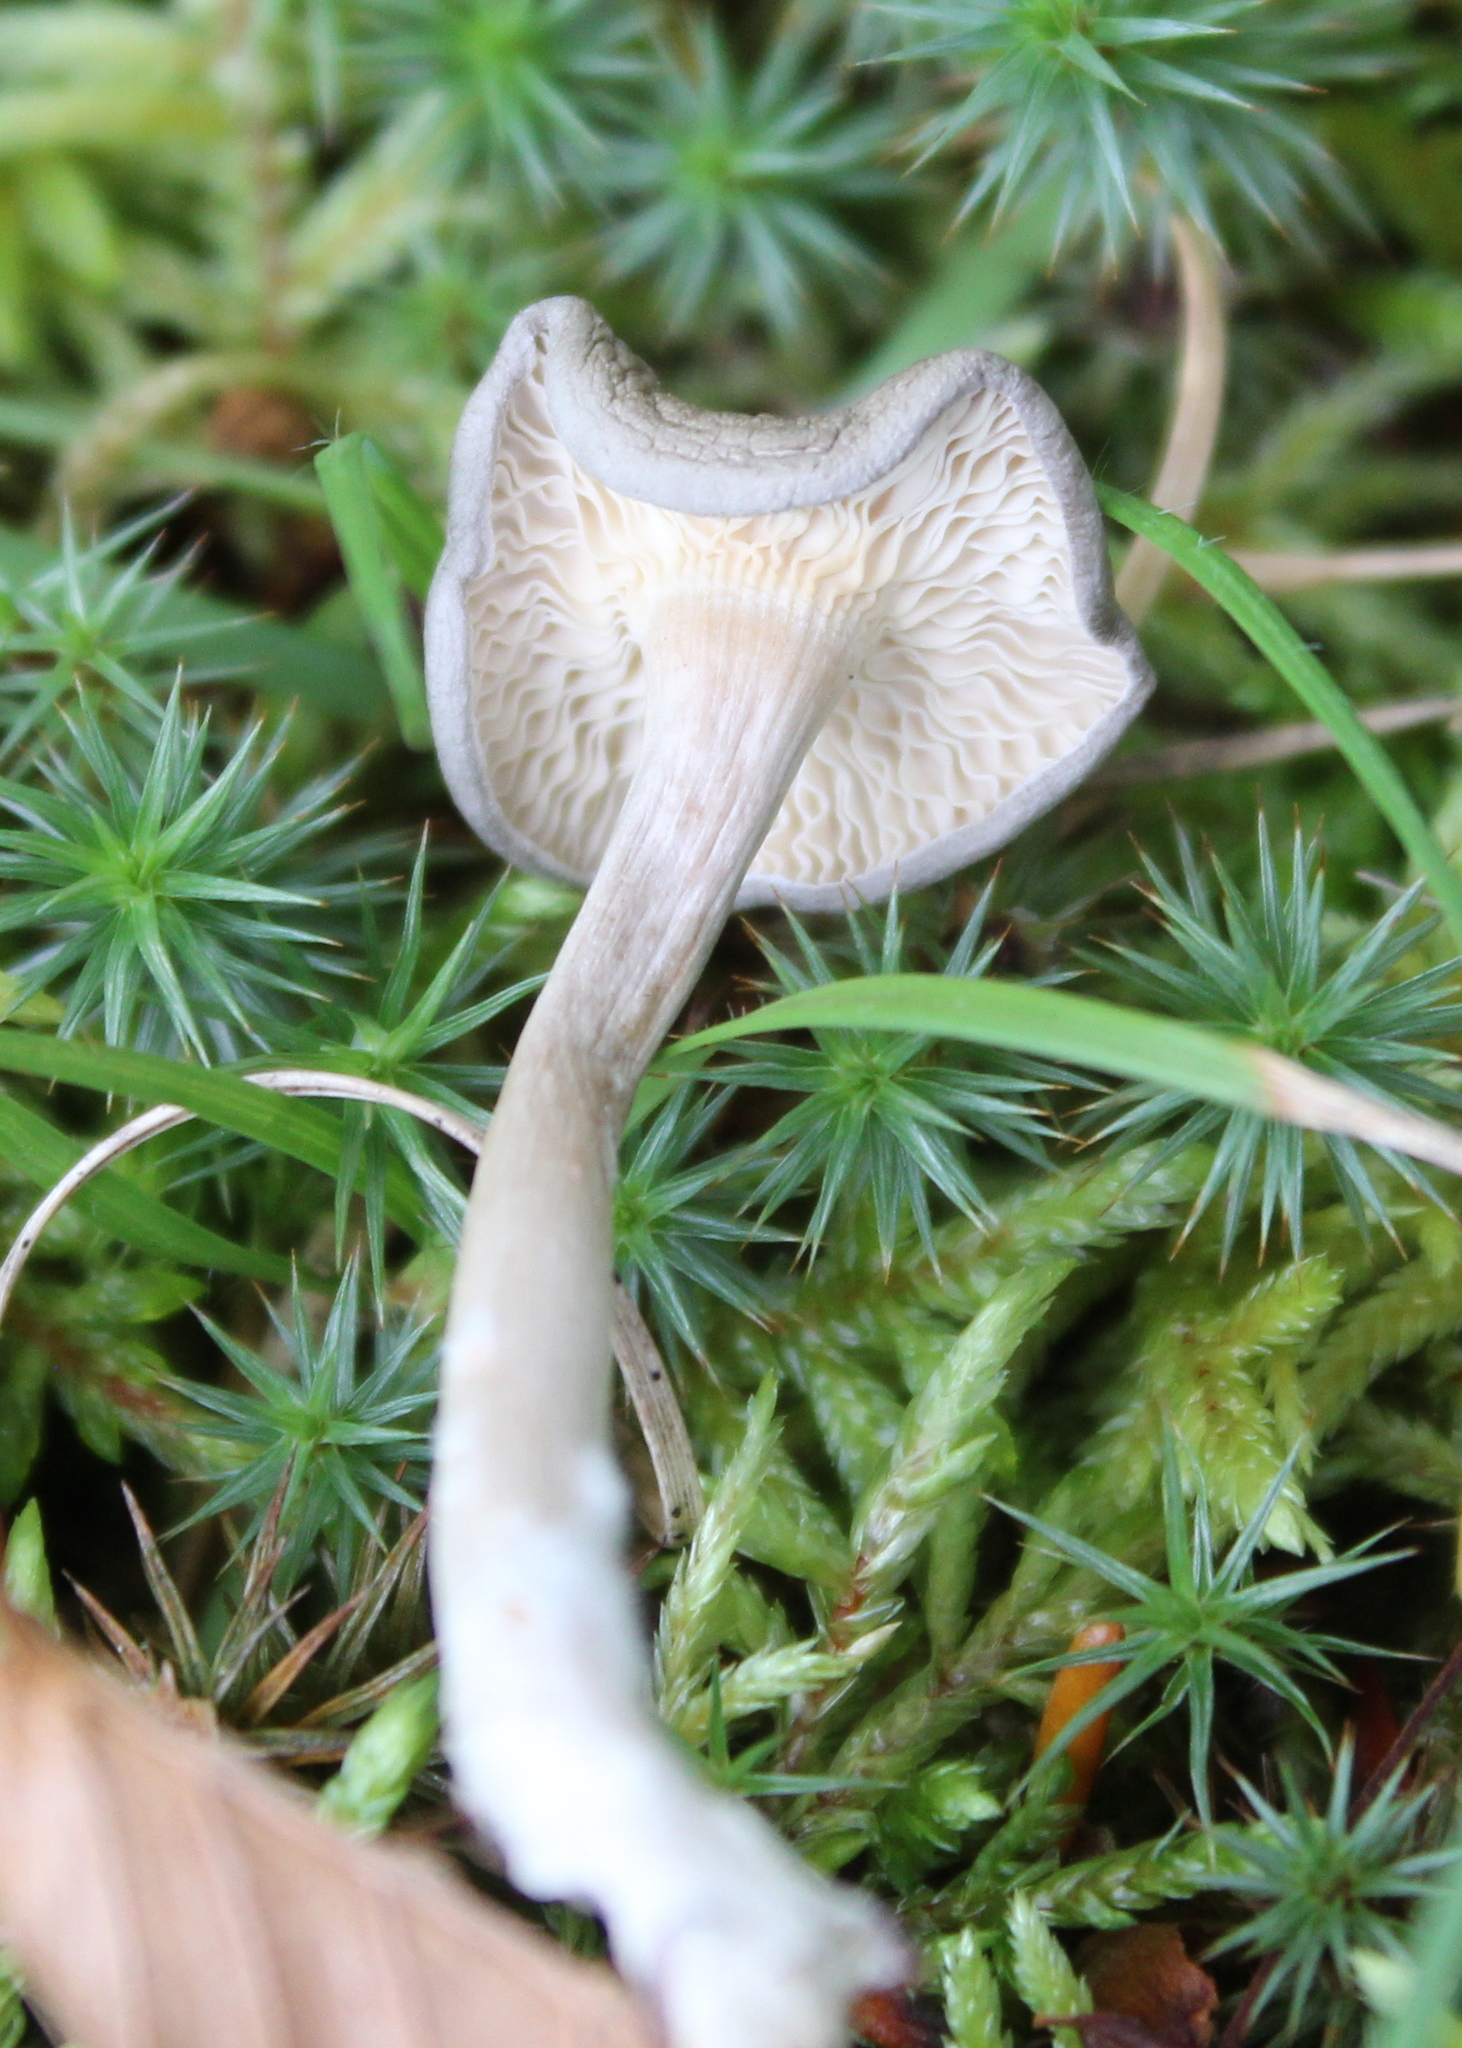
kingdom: Fungi
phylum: Basidiomycota
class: Agaricomycetes
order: Agaricales
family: Hygrophoraceae
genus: Cantharellula
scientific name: Cantharellula umbonata
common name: The humpback
